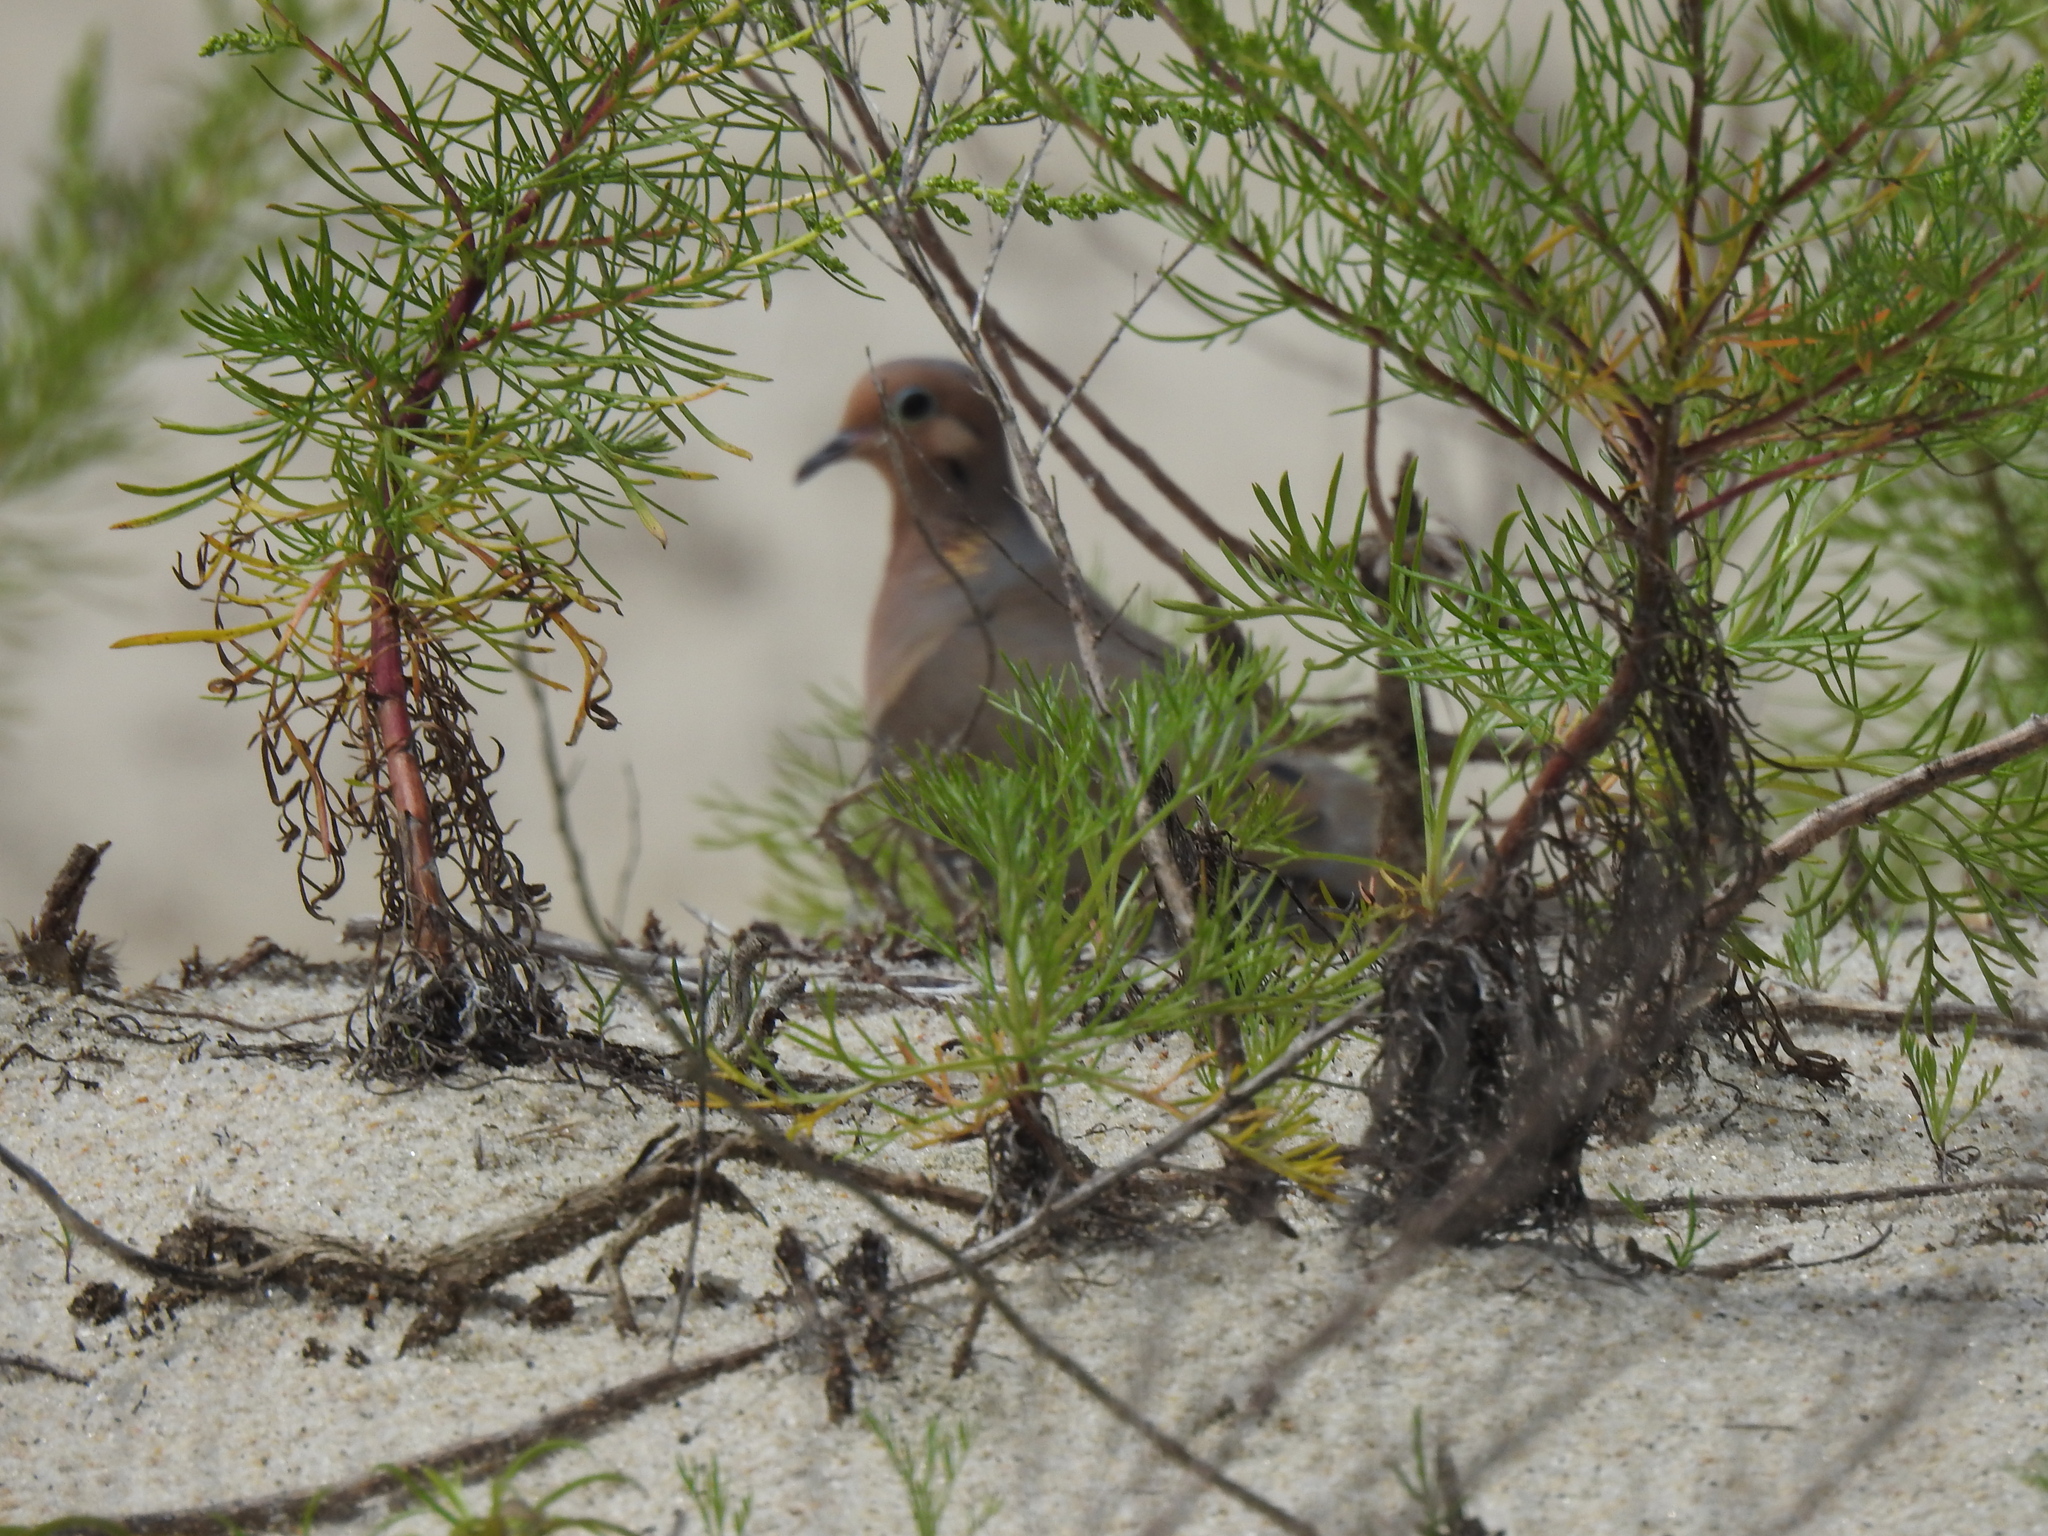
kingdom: Animalia
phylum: Chordata
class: Aves
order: Columbiformes
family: Columbidae
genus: Zenaida
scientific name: Zenaida macroura
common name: Mourning dove
